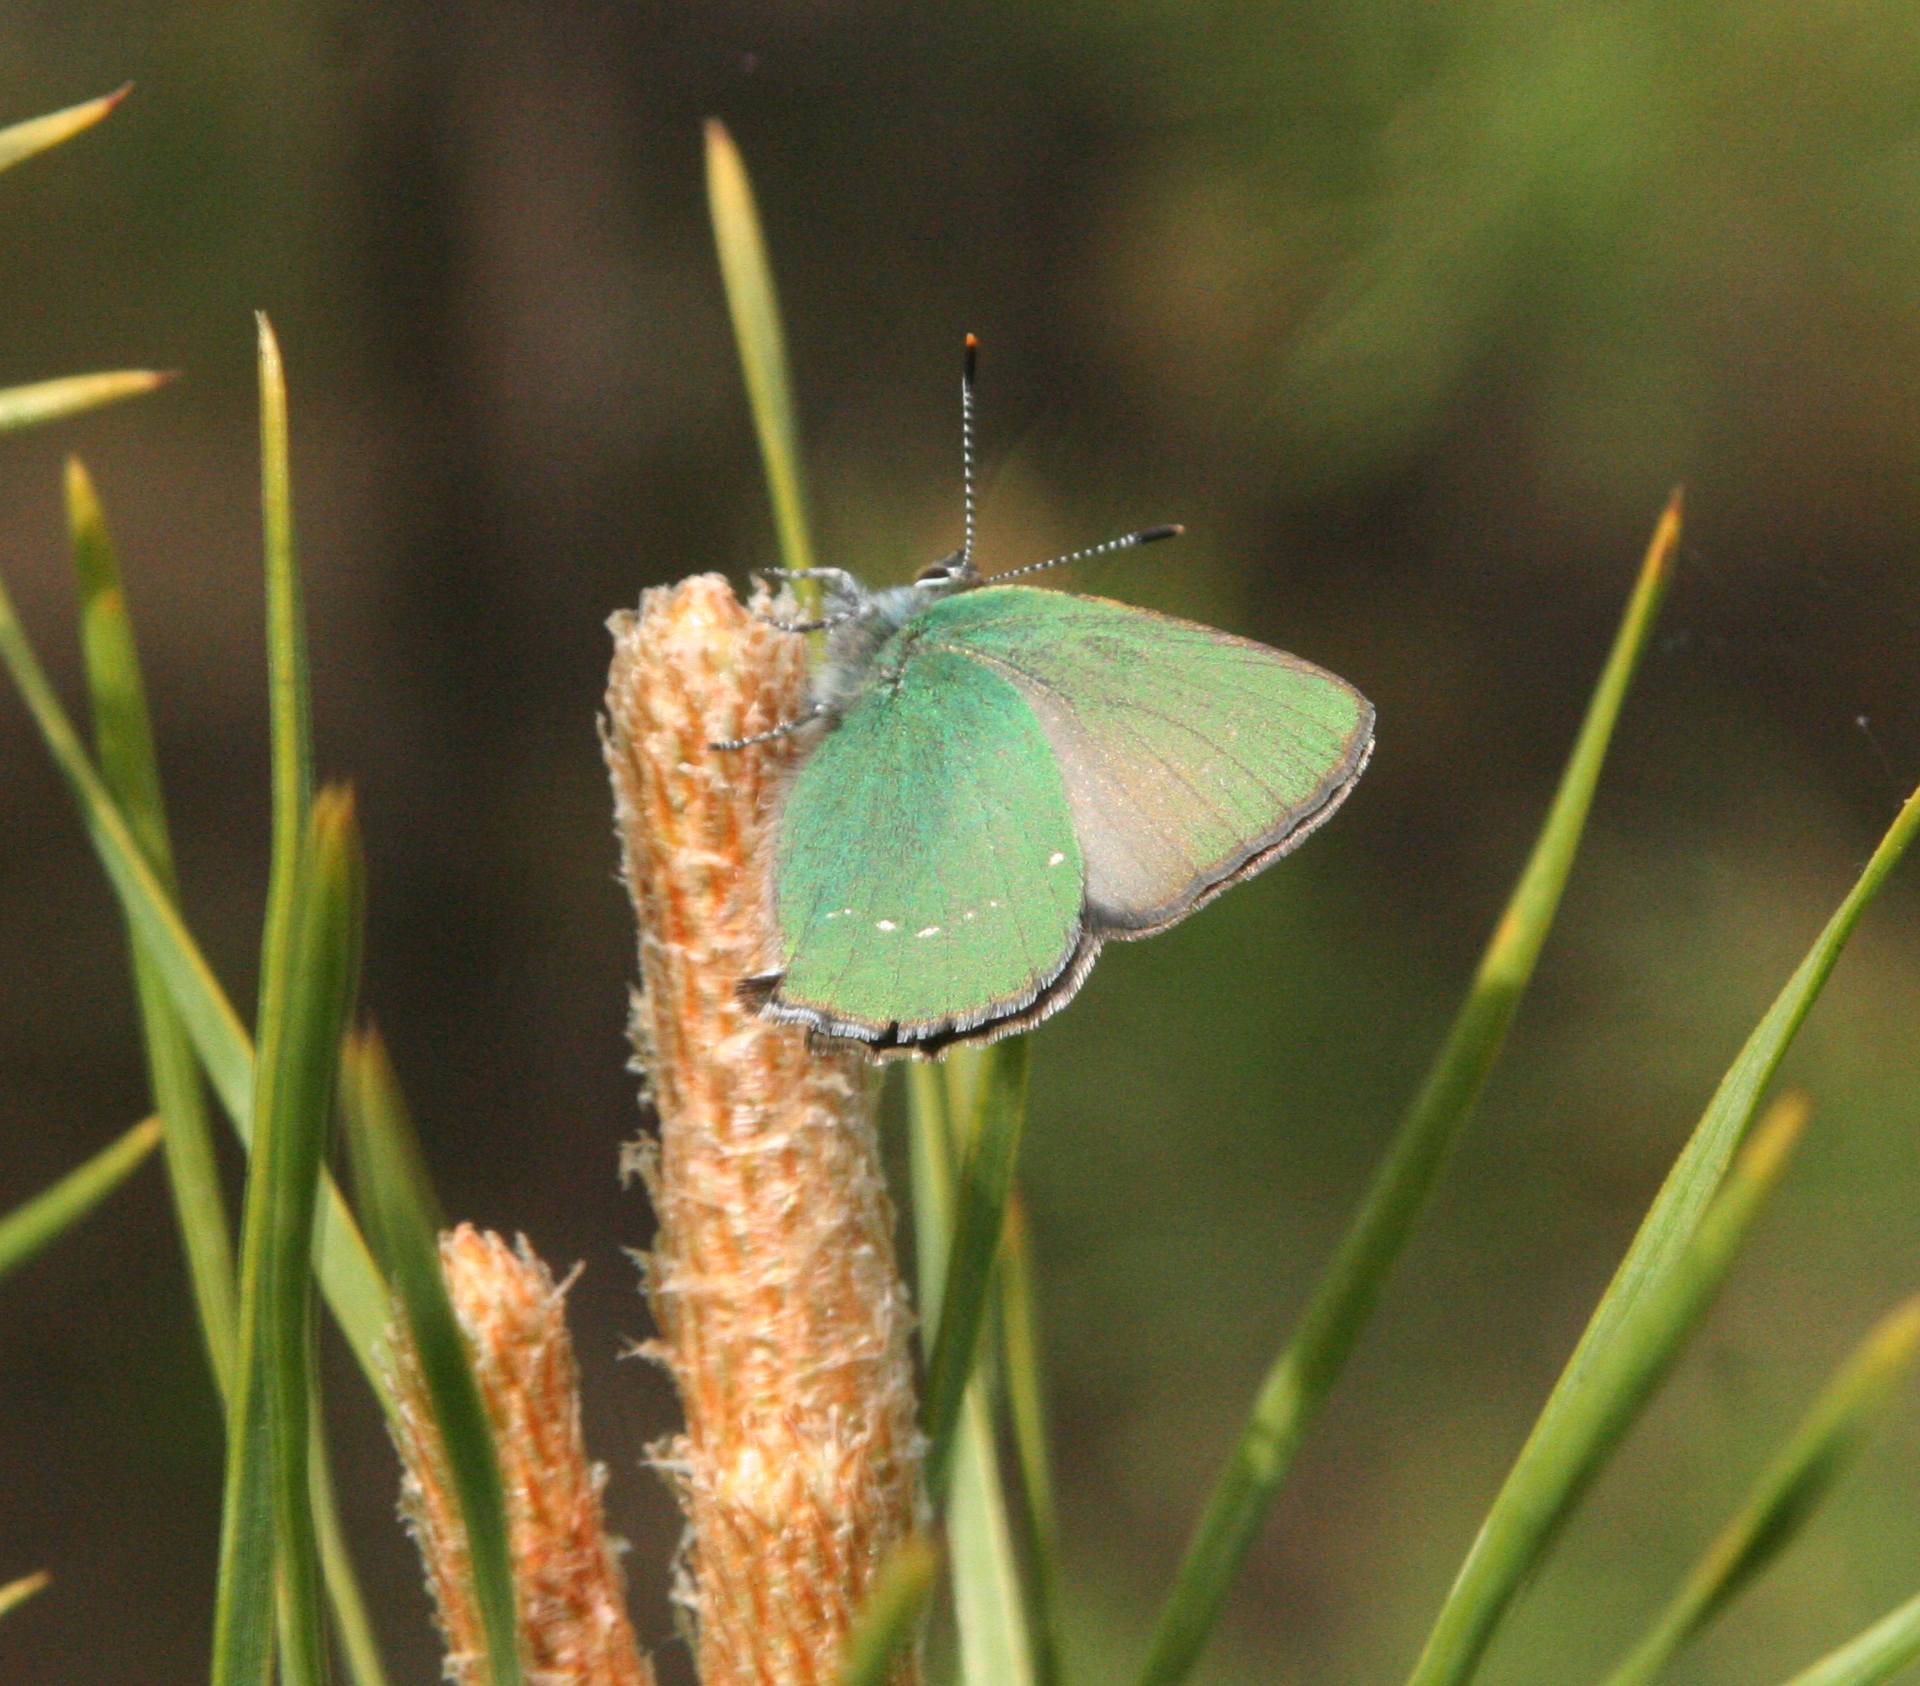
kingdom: Animalia
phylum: Arthropoda
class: Insecta
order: Lepidoptera
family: Lycaenidae
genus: Callophrys
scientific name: Callophrys rubi
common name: Green hairstreak
